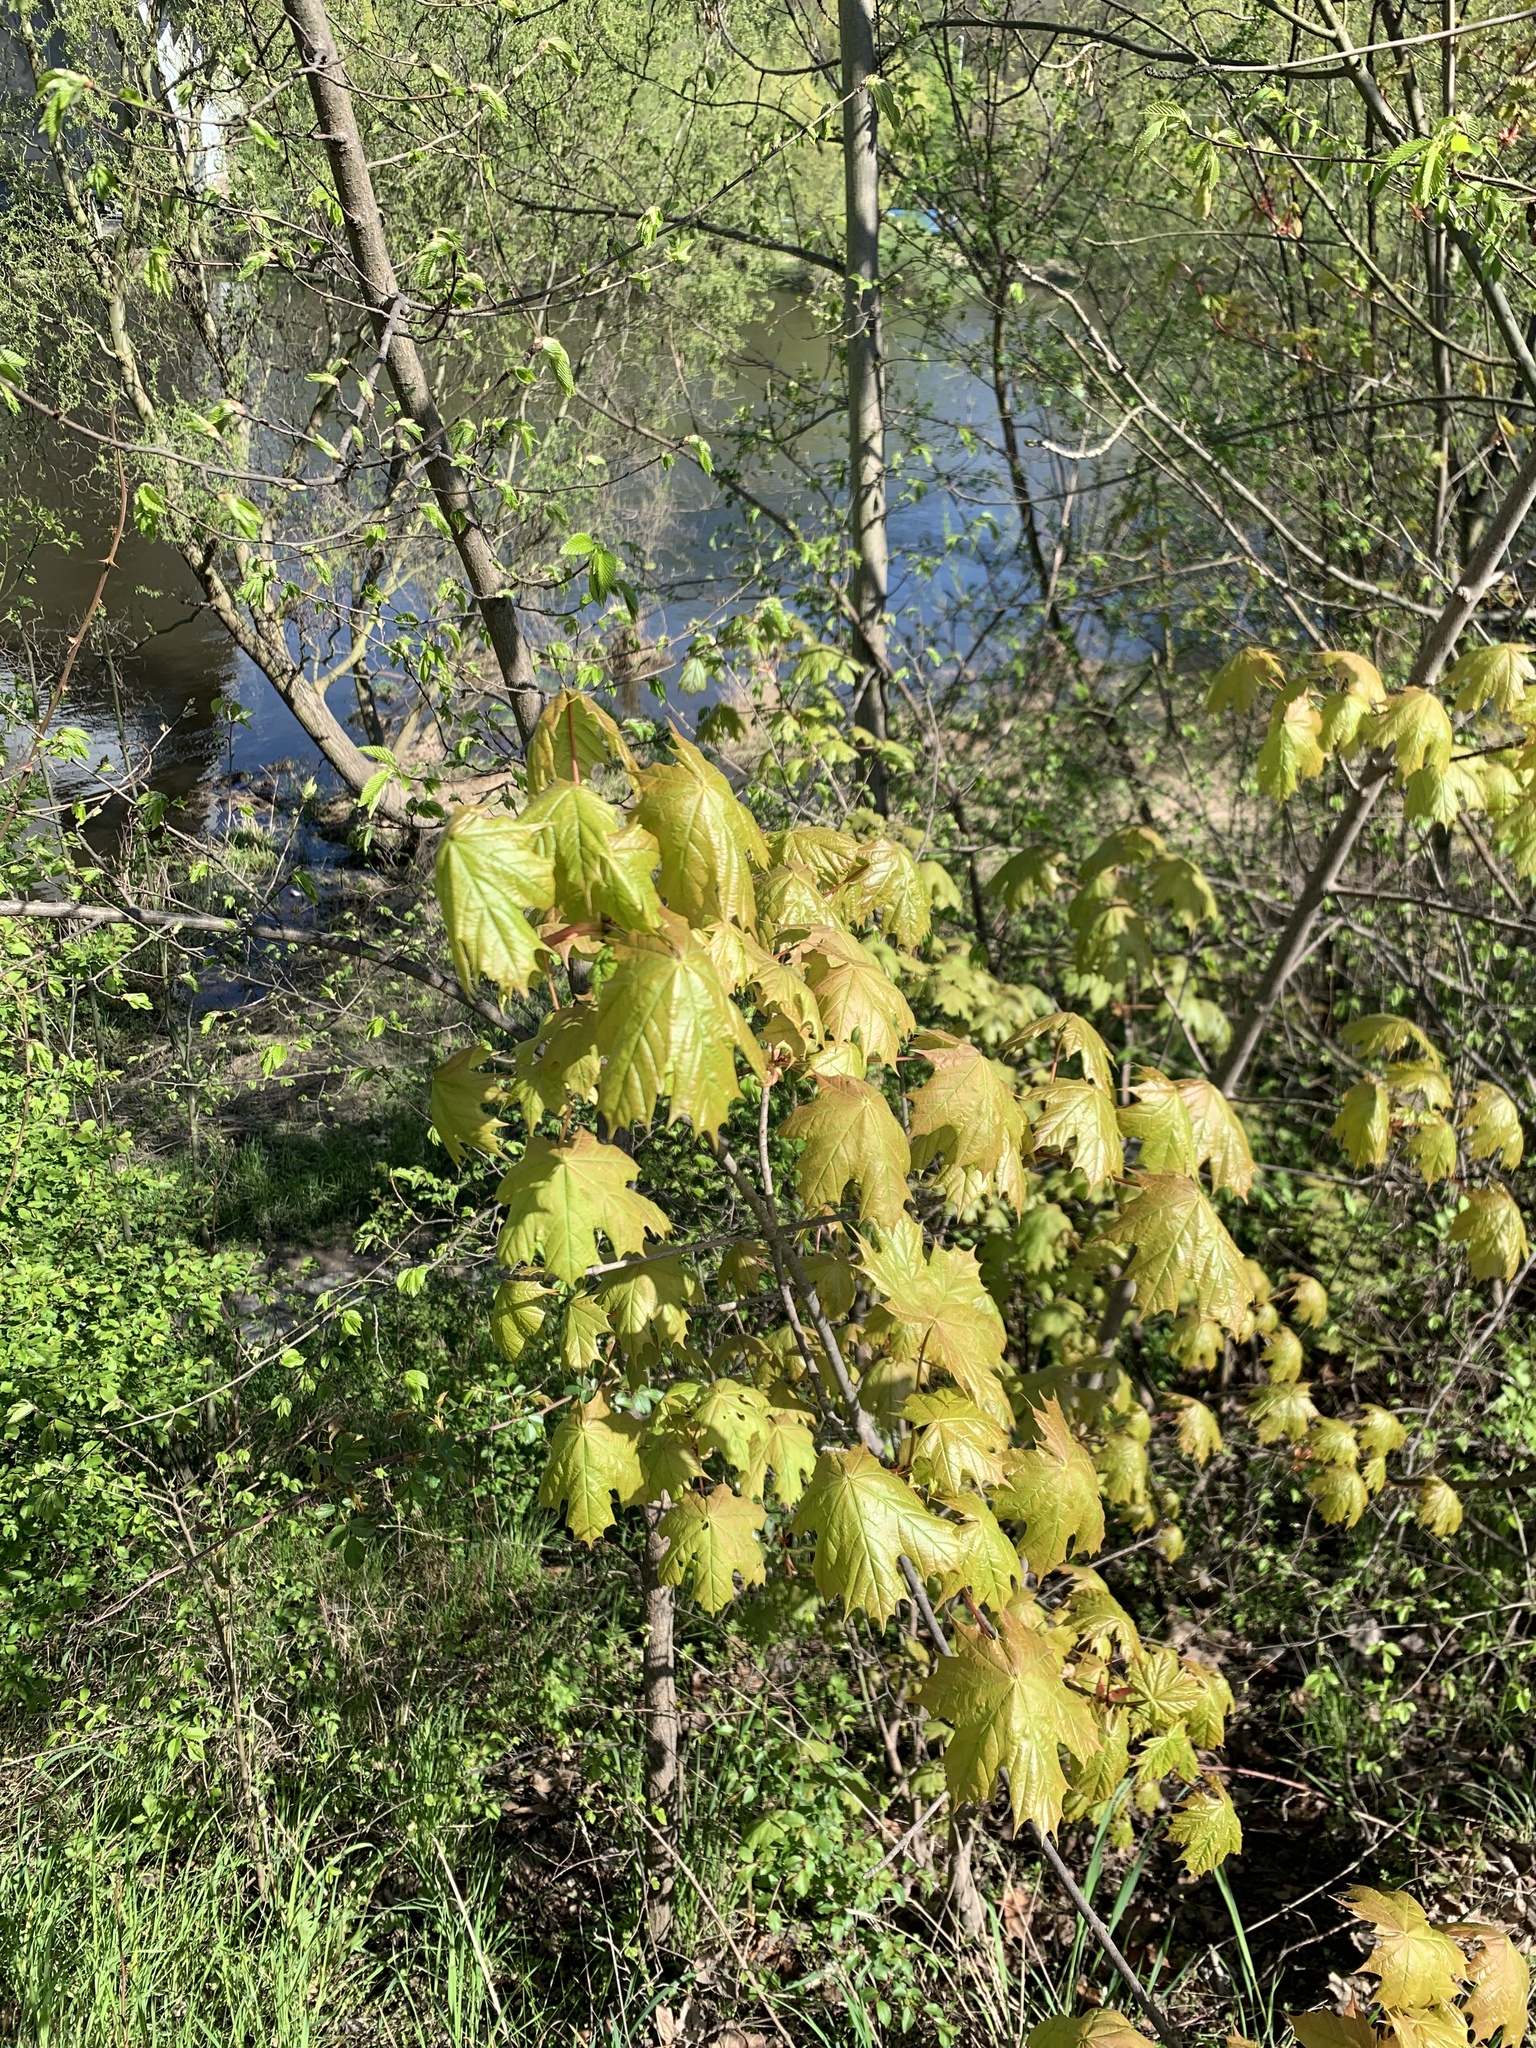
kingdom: Plantae
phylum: Tracheophyta
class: Magnoliopsida
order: Sapindales
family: Sapindaceae
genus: Acer
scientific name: Acer platanoides
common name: Norway maple
